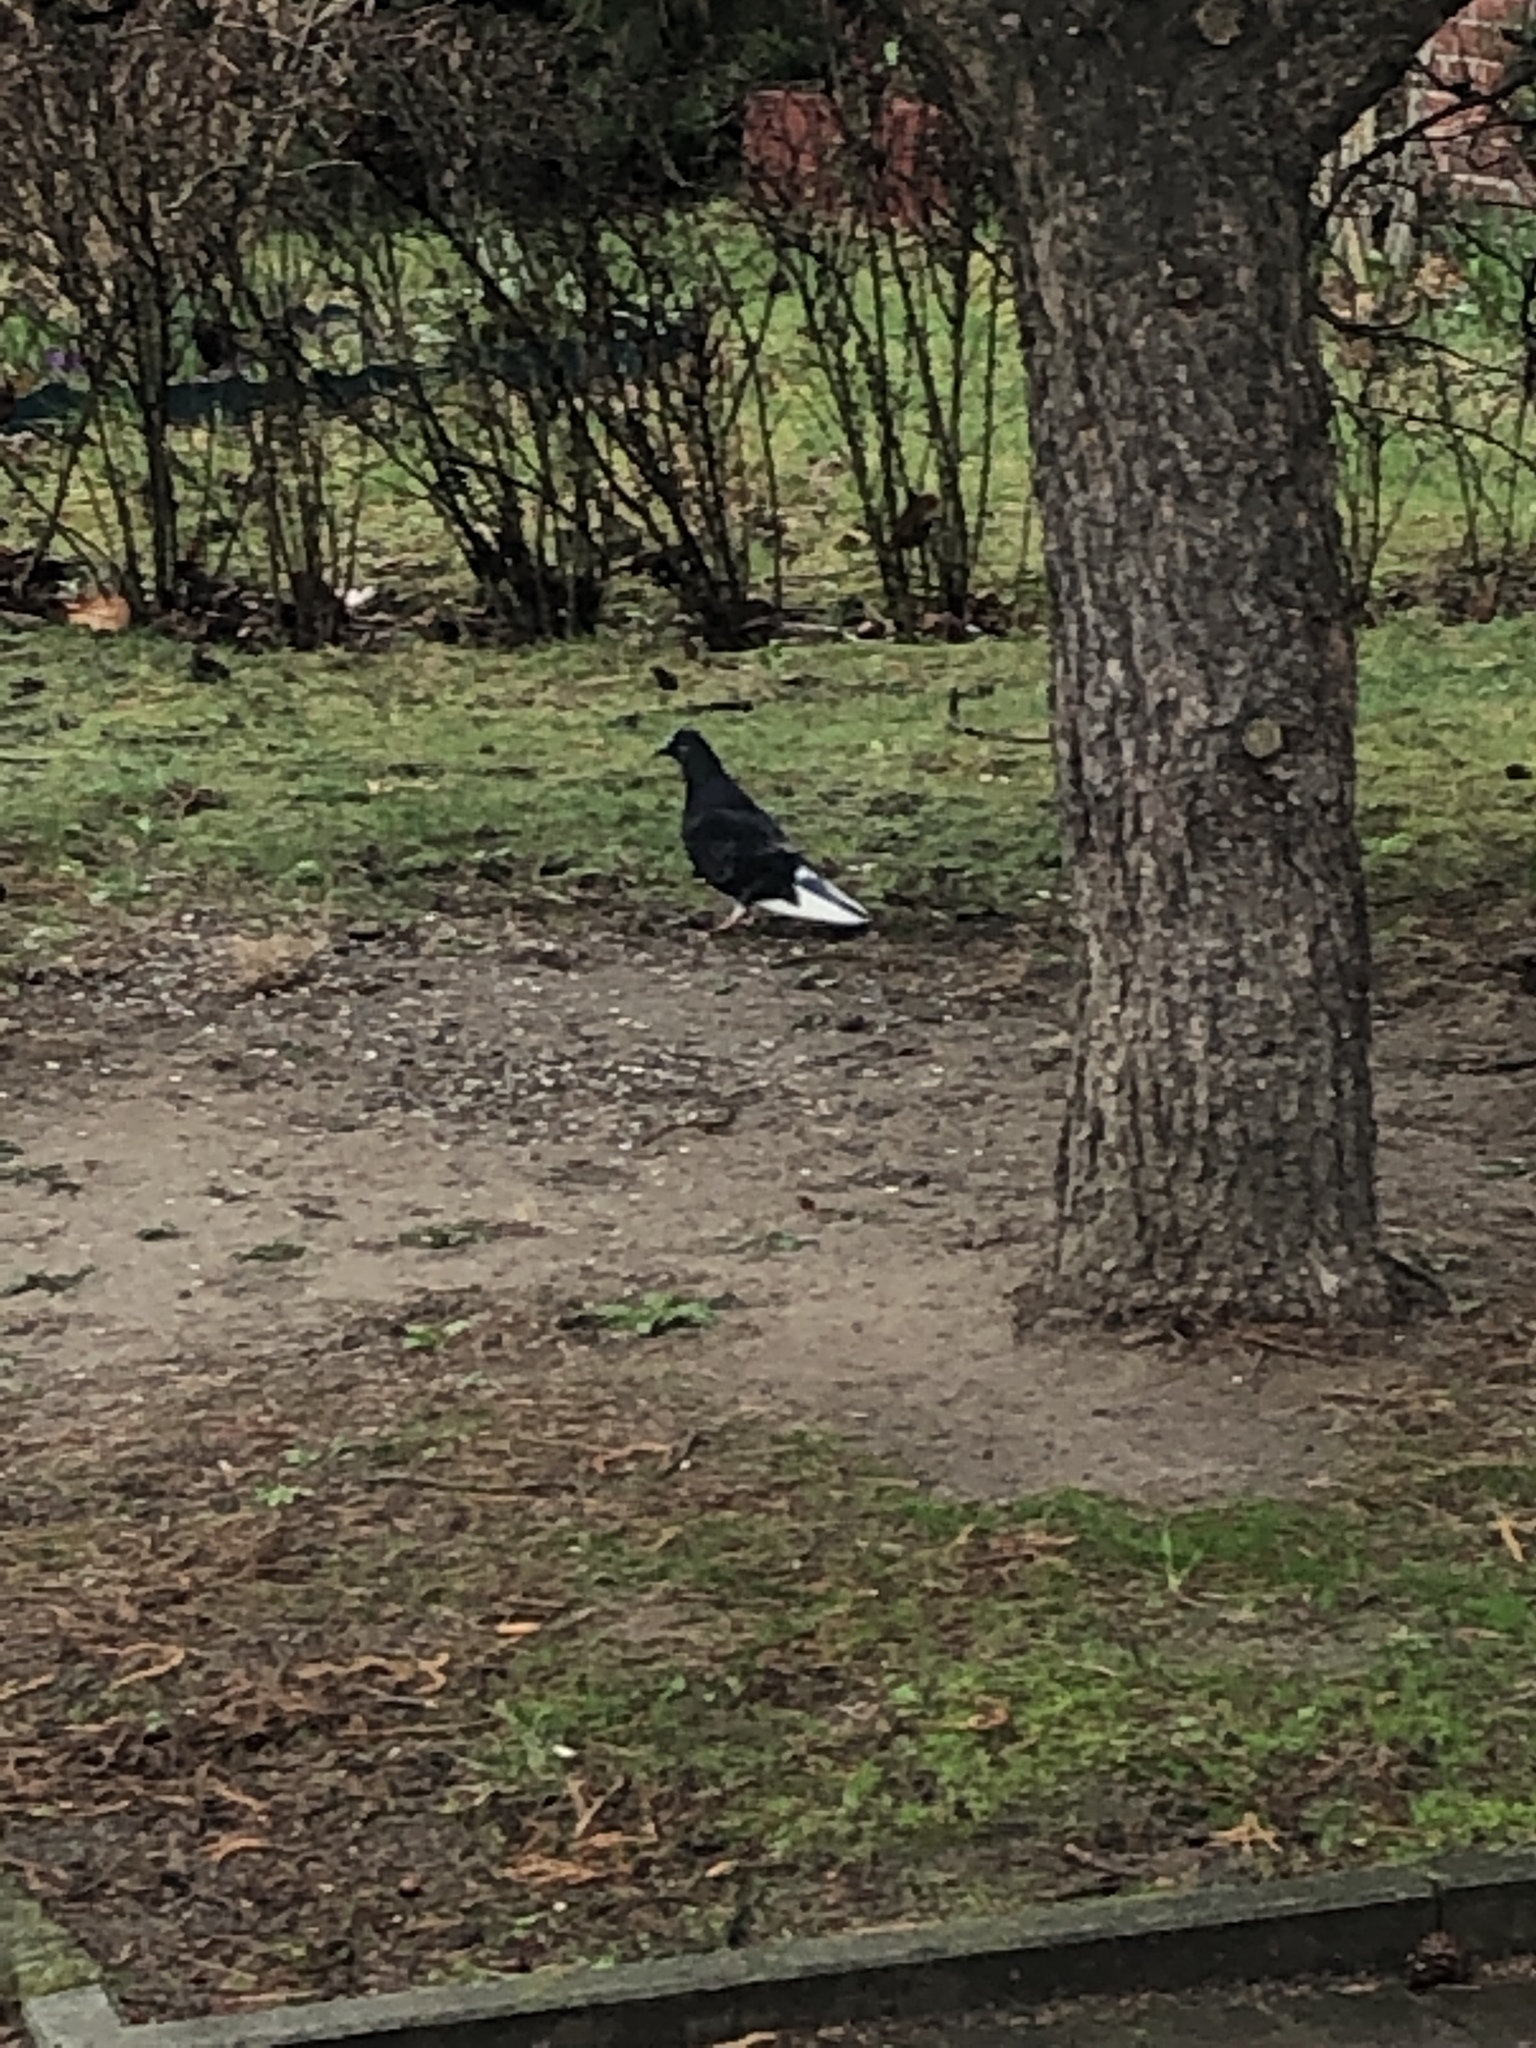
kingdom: Animalia
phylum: Chordata
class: Aves
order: Columbiformes
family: Columbidae
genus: Columba
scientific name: Columba livia
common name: Rock pigeon
